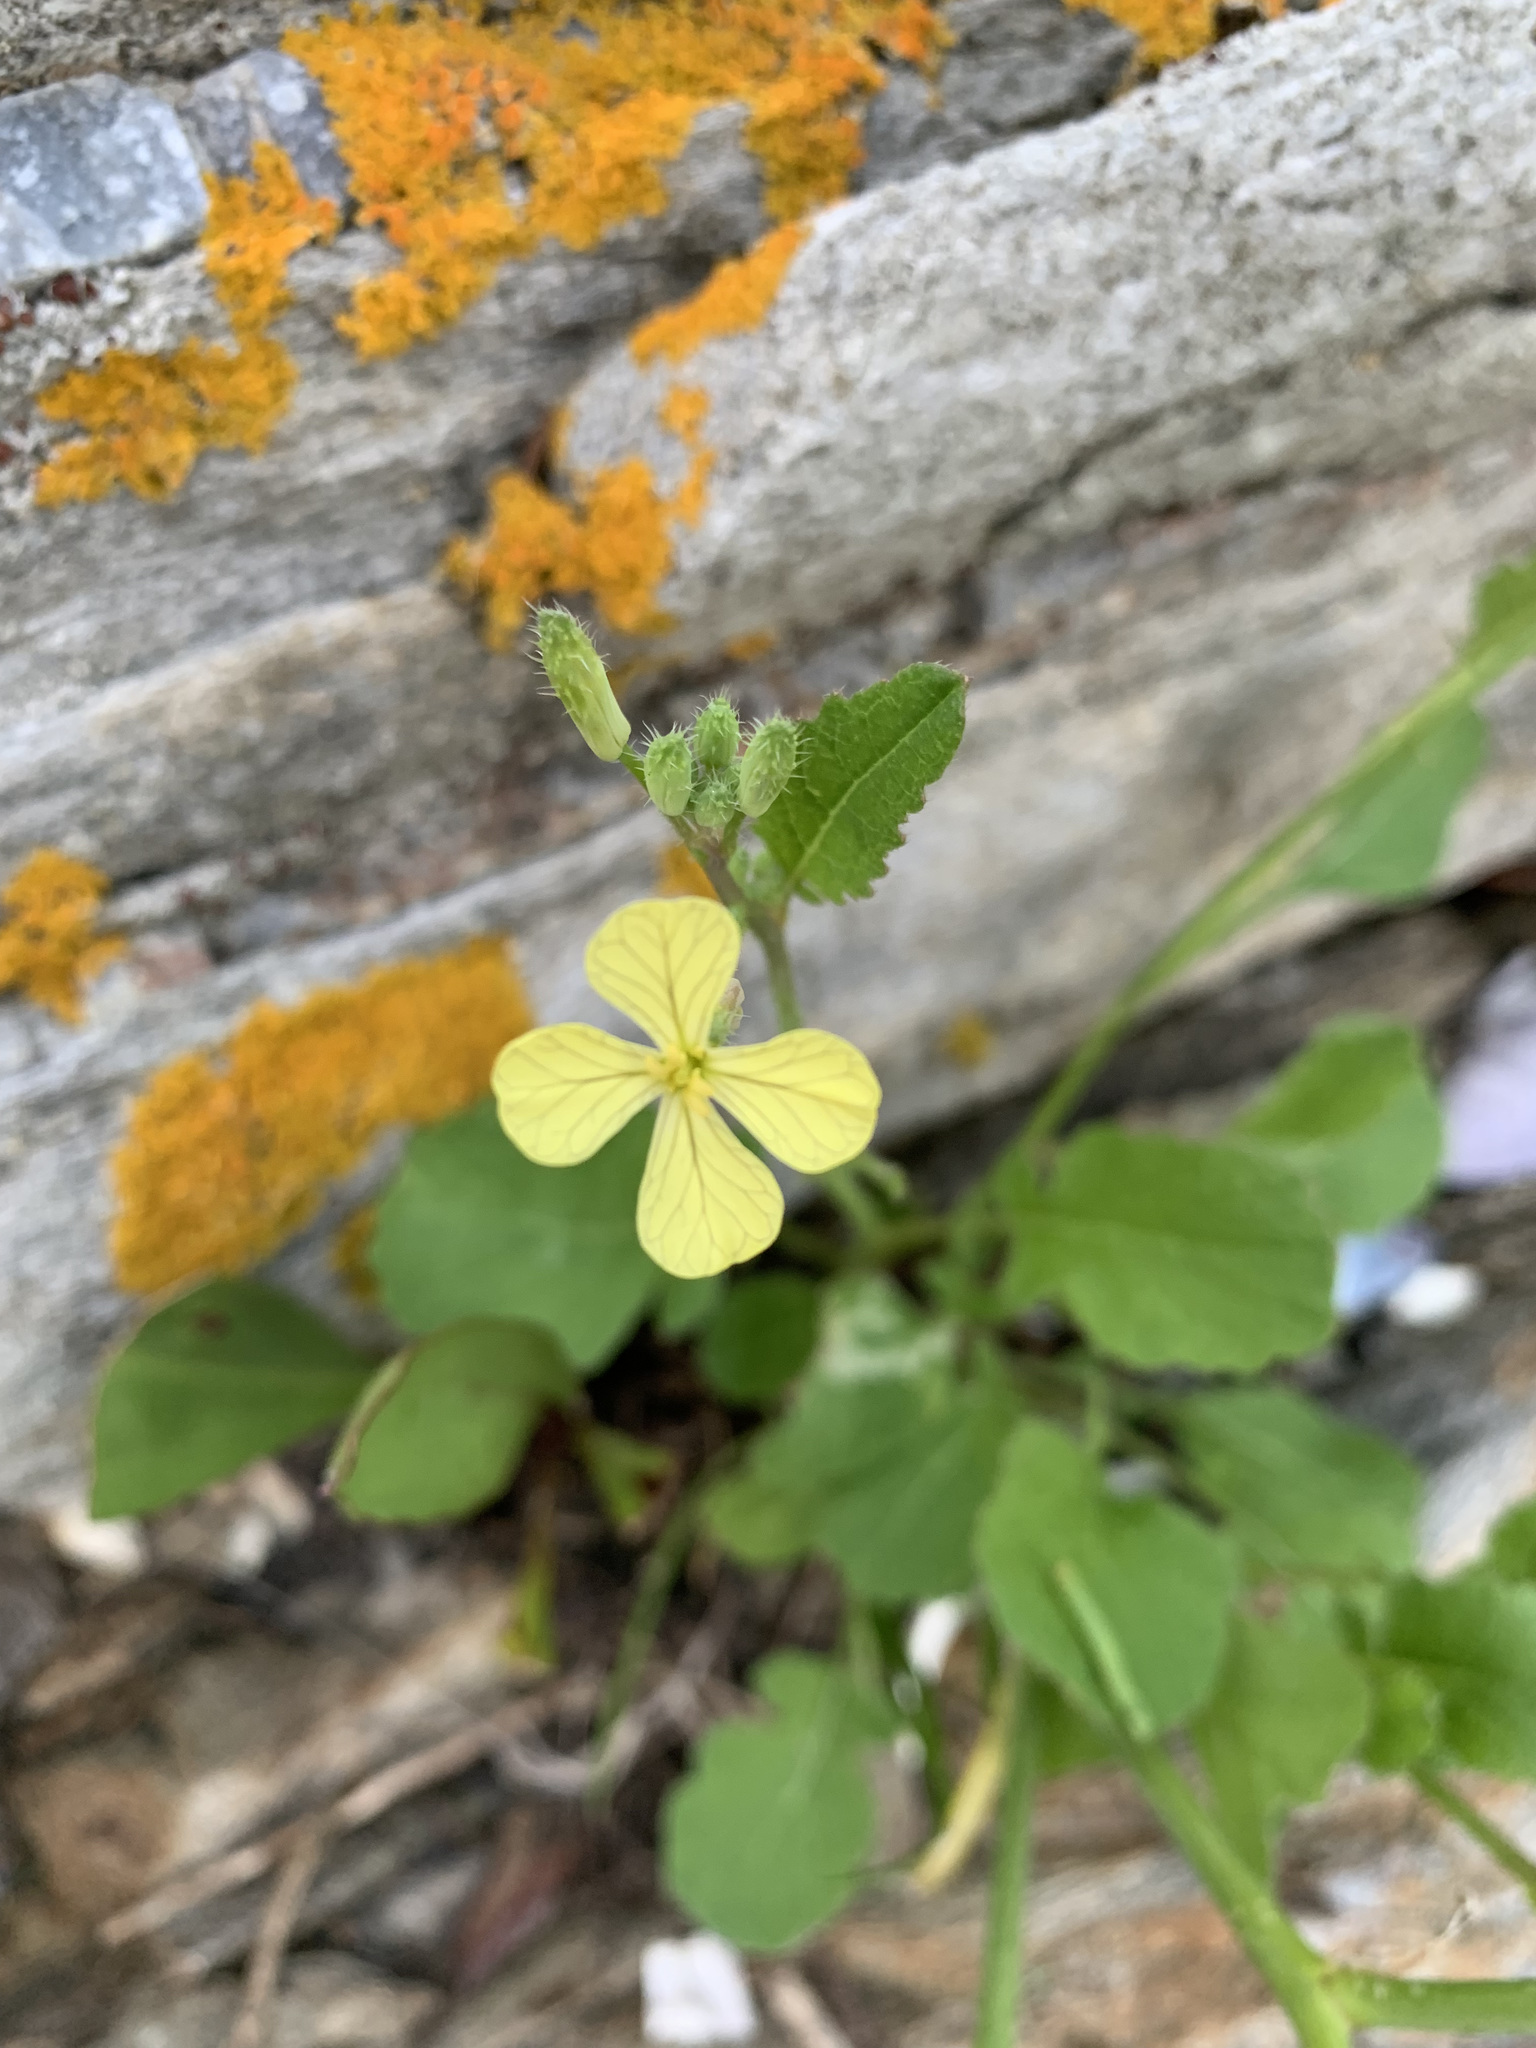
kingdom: Plantae
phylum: Tracheophyta
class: Magnoliopsida
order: Brassicales
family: Brassicaceae
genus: Raphanus
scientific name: Raphanus raphanistrum
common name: Wild radish
